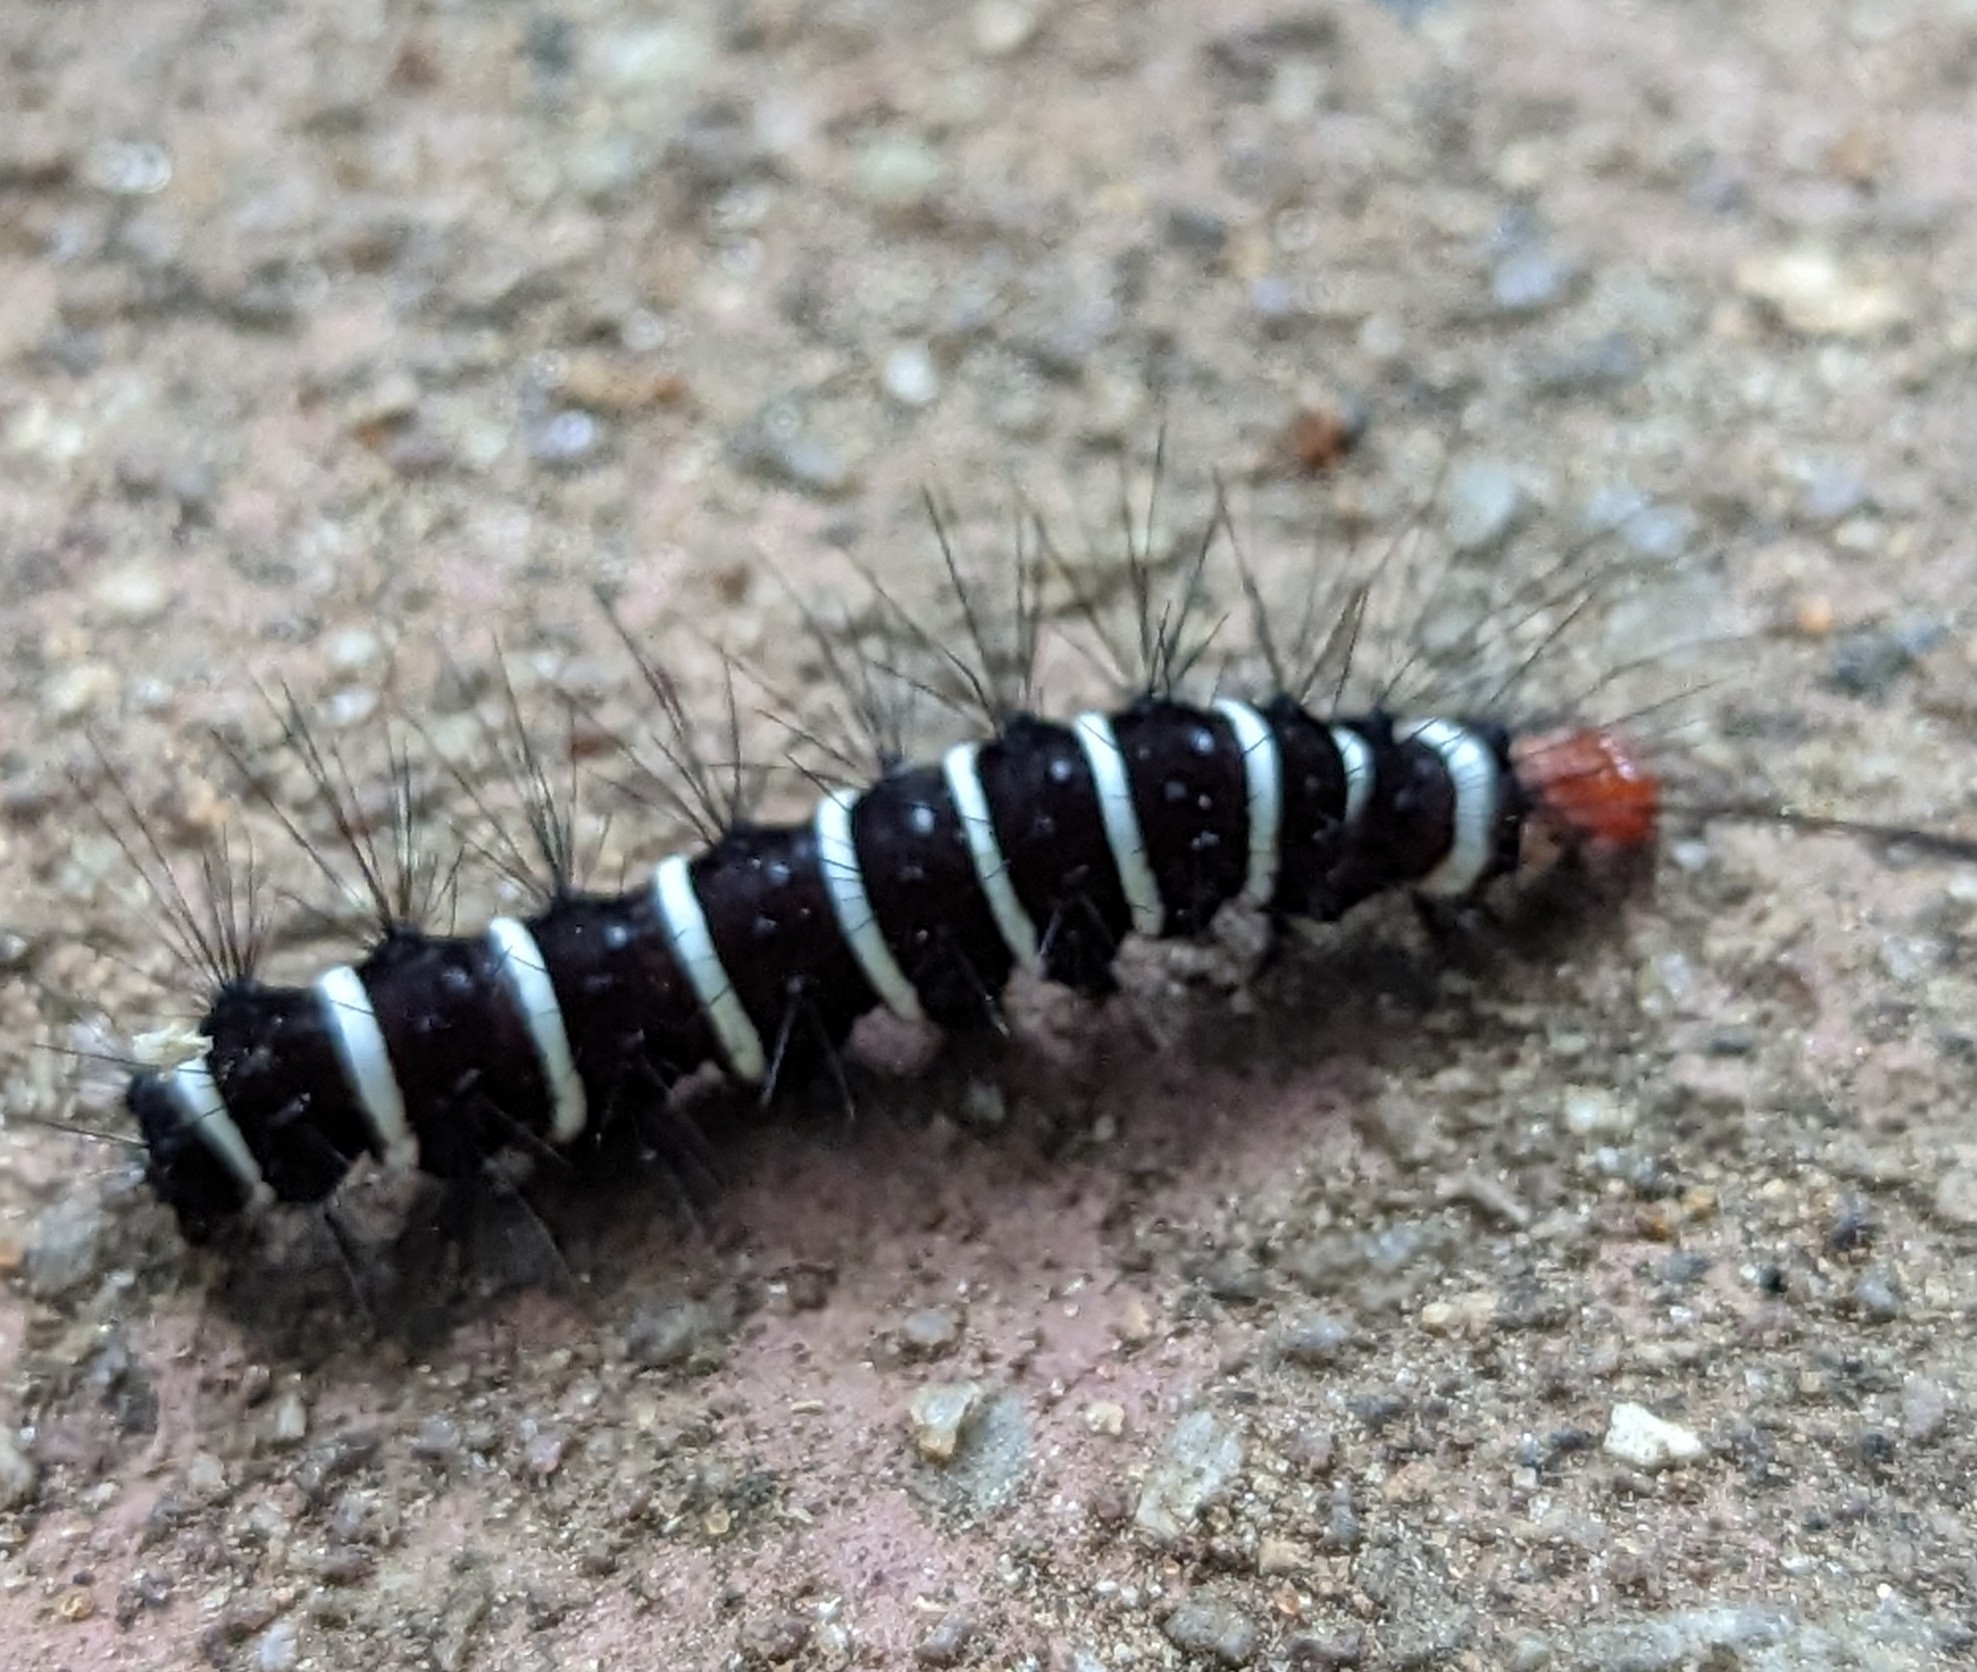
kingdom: Animalia
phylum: Arthropoda
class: Insecta
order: Lepidoptera
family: Erebidae
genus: Nyctemera
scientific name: Nyctemera coleta
